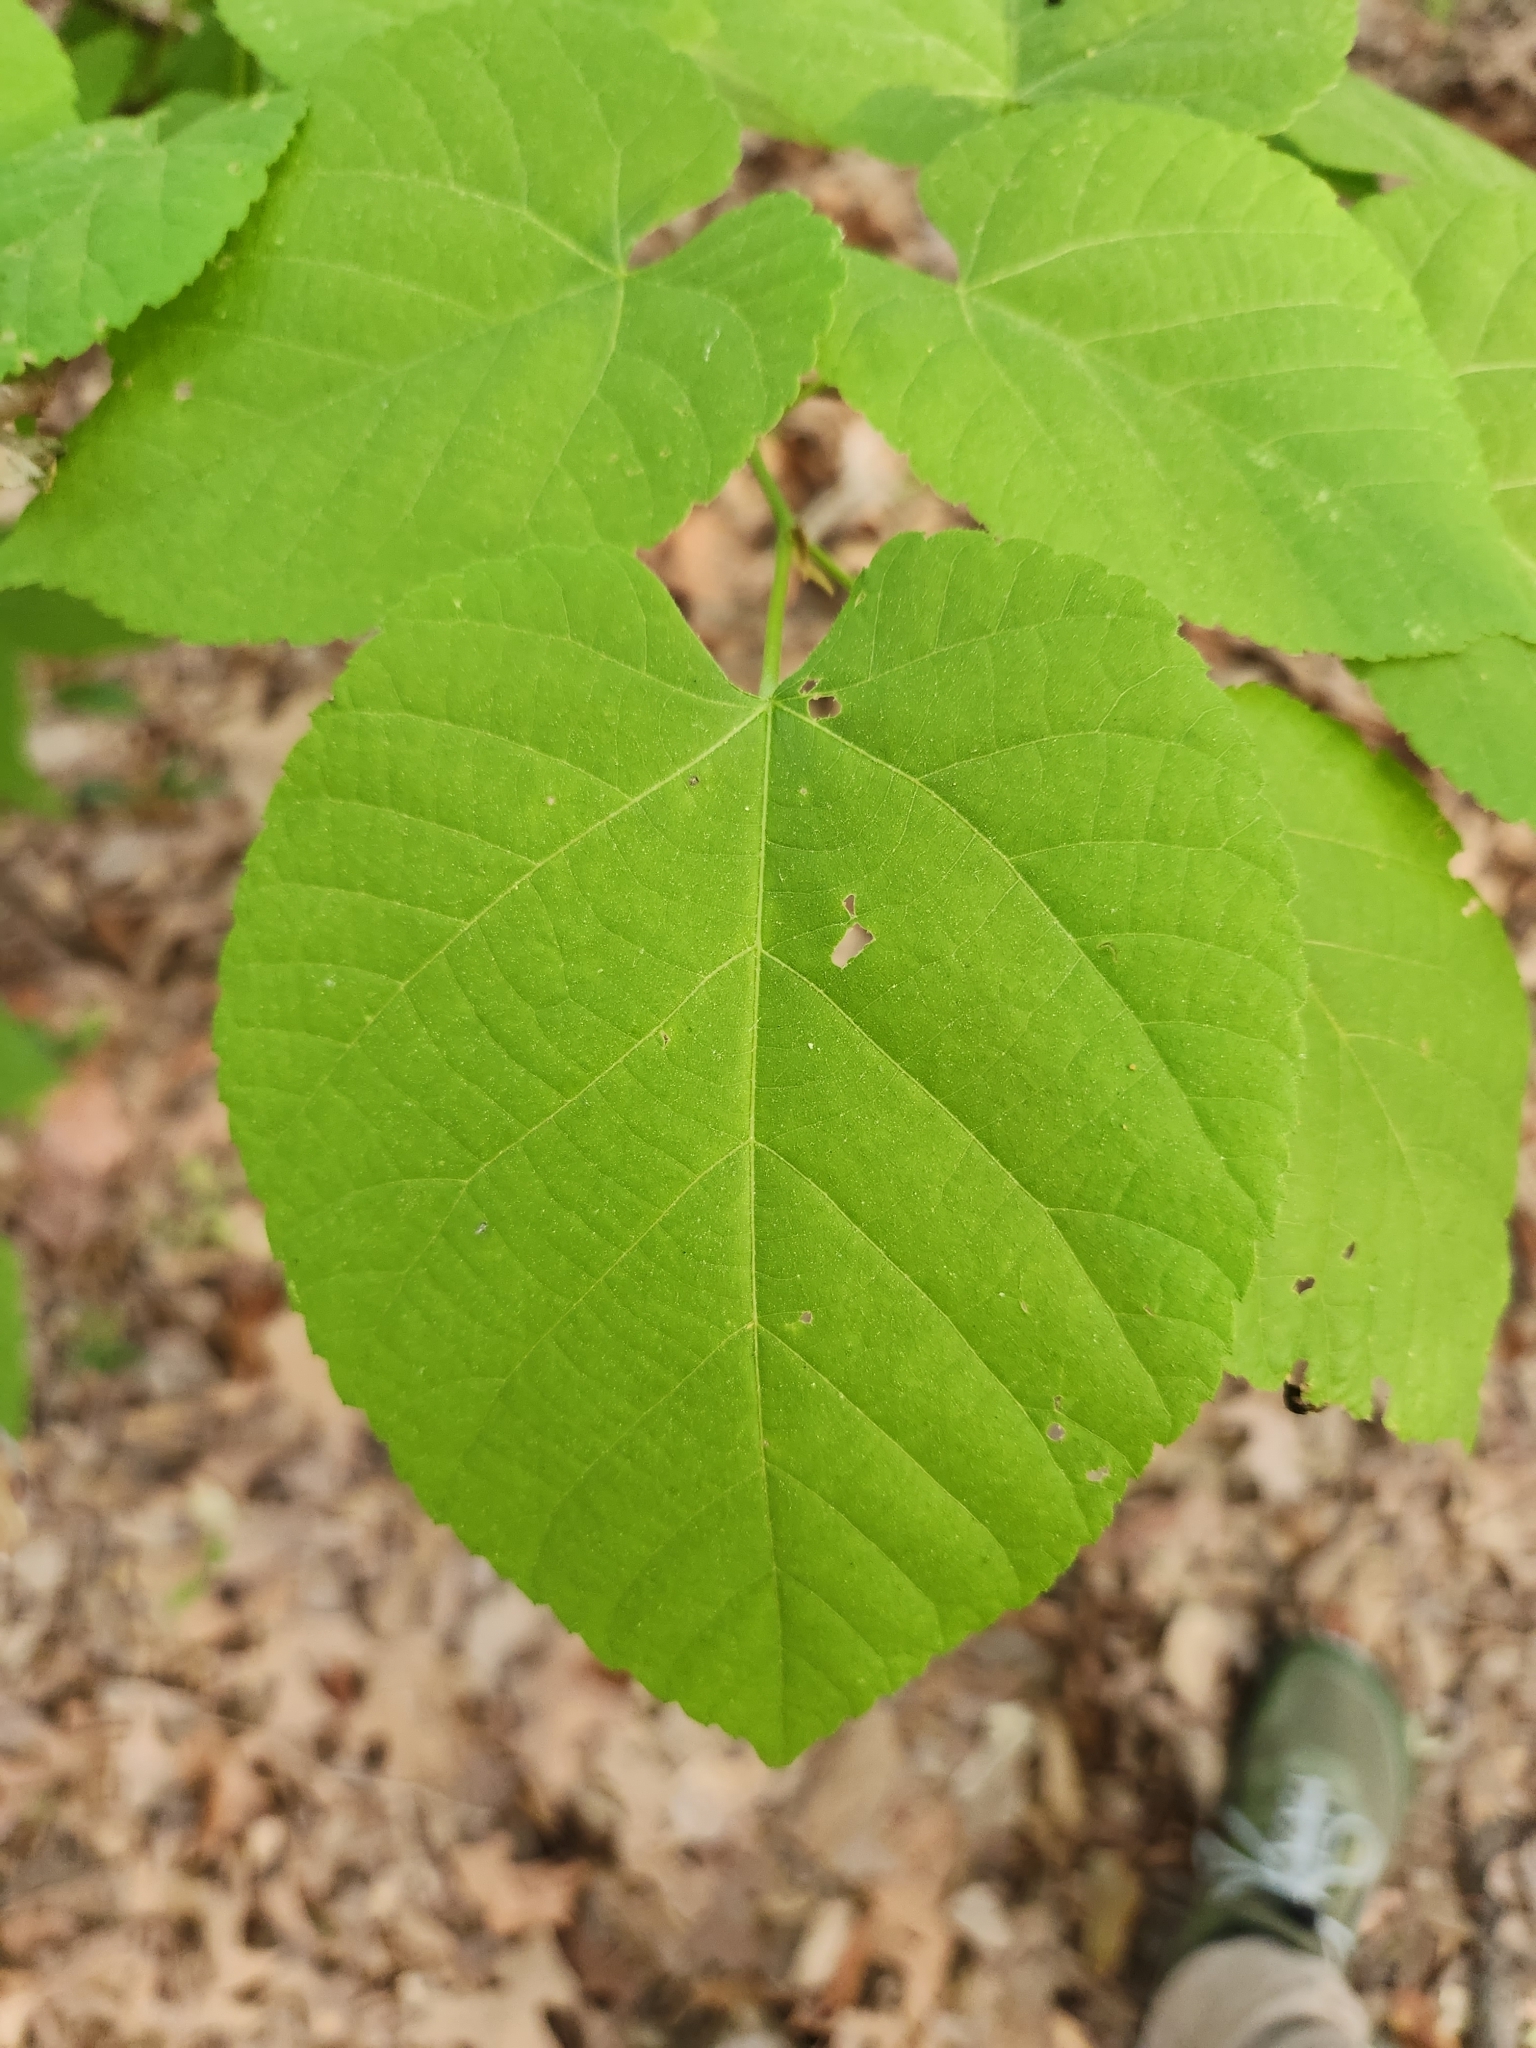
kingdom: Plantae
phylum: Tracheophyta
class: Magnoliopsida
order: Malvales
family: Malvaceae
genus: Tilia
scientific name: Tilia americana
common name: Basswood
